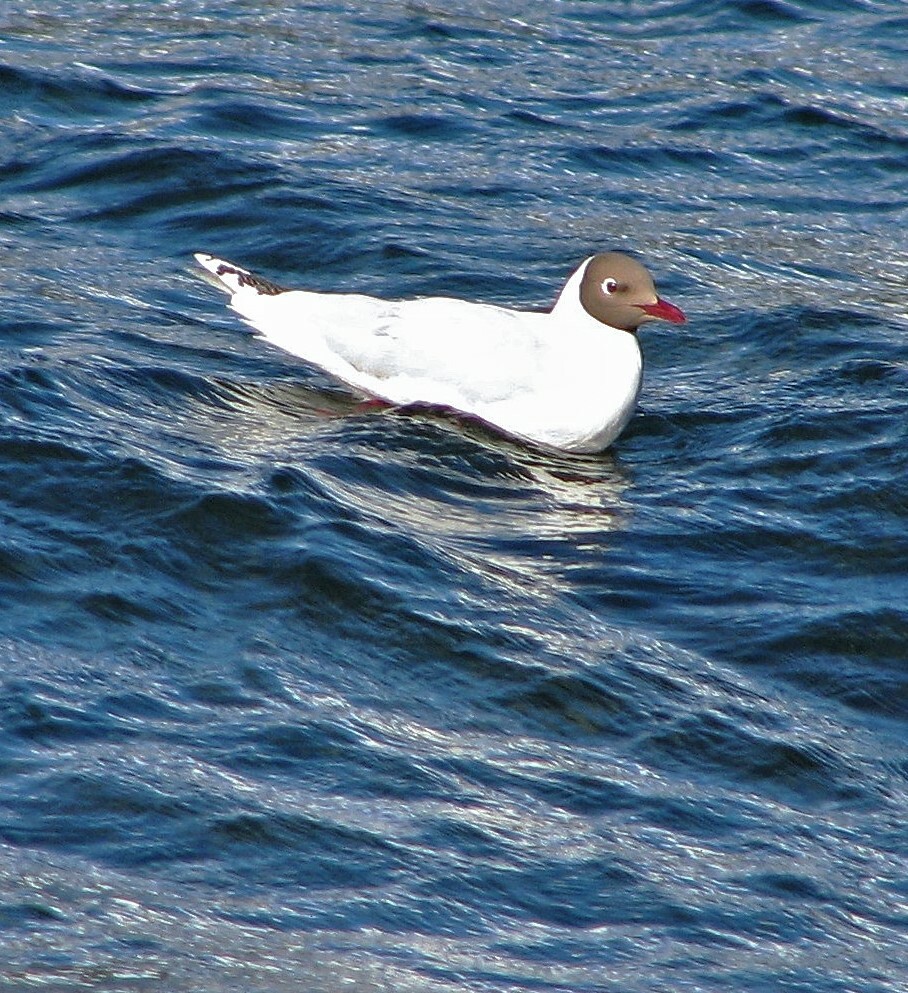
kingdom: Animalia
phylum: Chordata
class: Aves
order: Charadriiformes
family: Laridae
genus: Chroicocephalus
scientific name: Chroicocephalus maculipennis
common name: Brown-hooded gull
